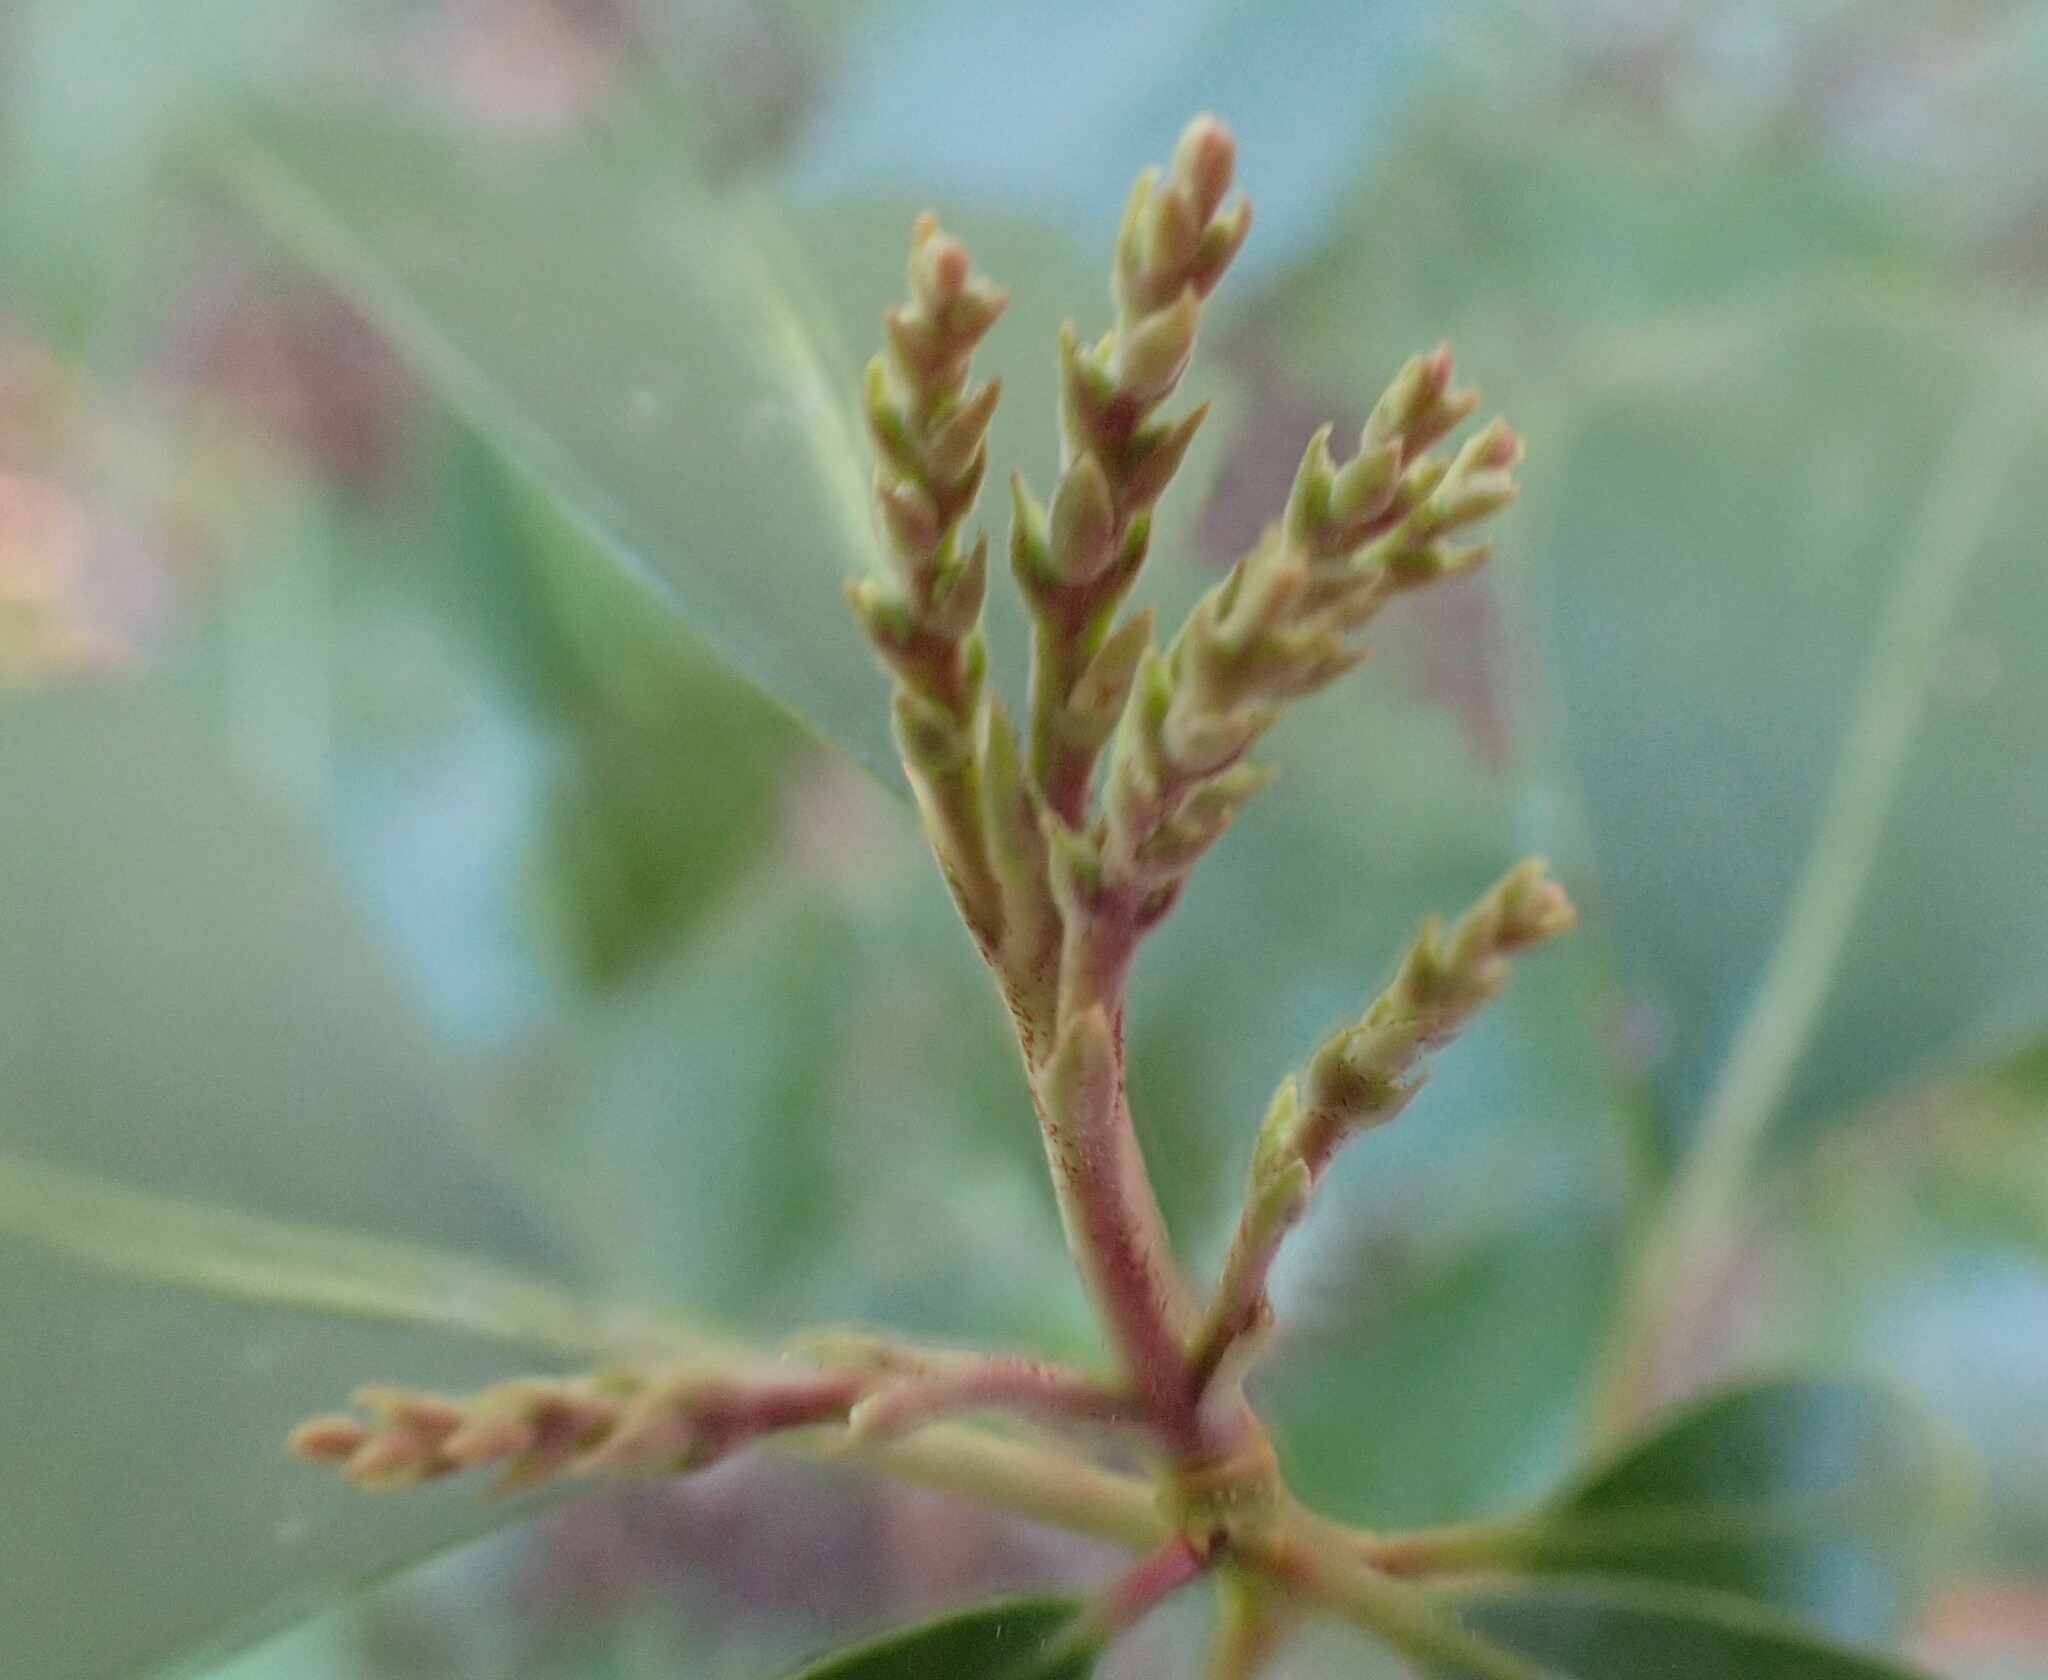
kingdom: Plantae
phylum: Tracheophyta
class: Magnoliopsida
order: Ericales
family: Ericaceae
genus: Kalmia
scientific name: Kalmia latifolia
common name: Mountain-laurel
